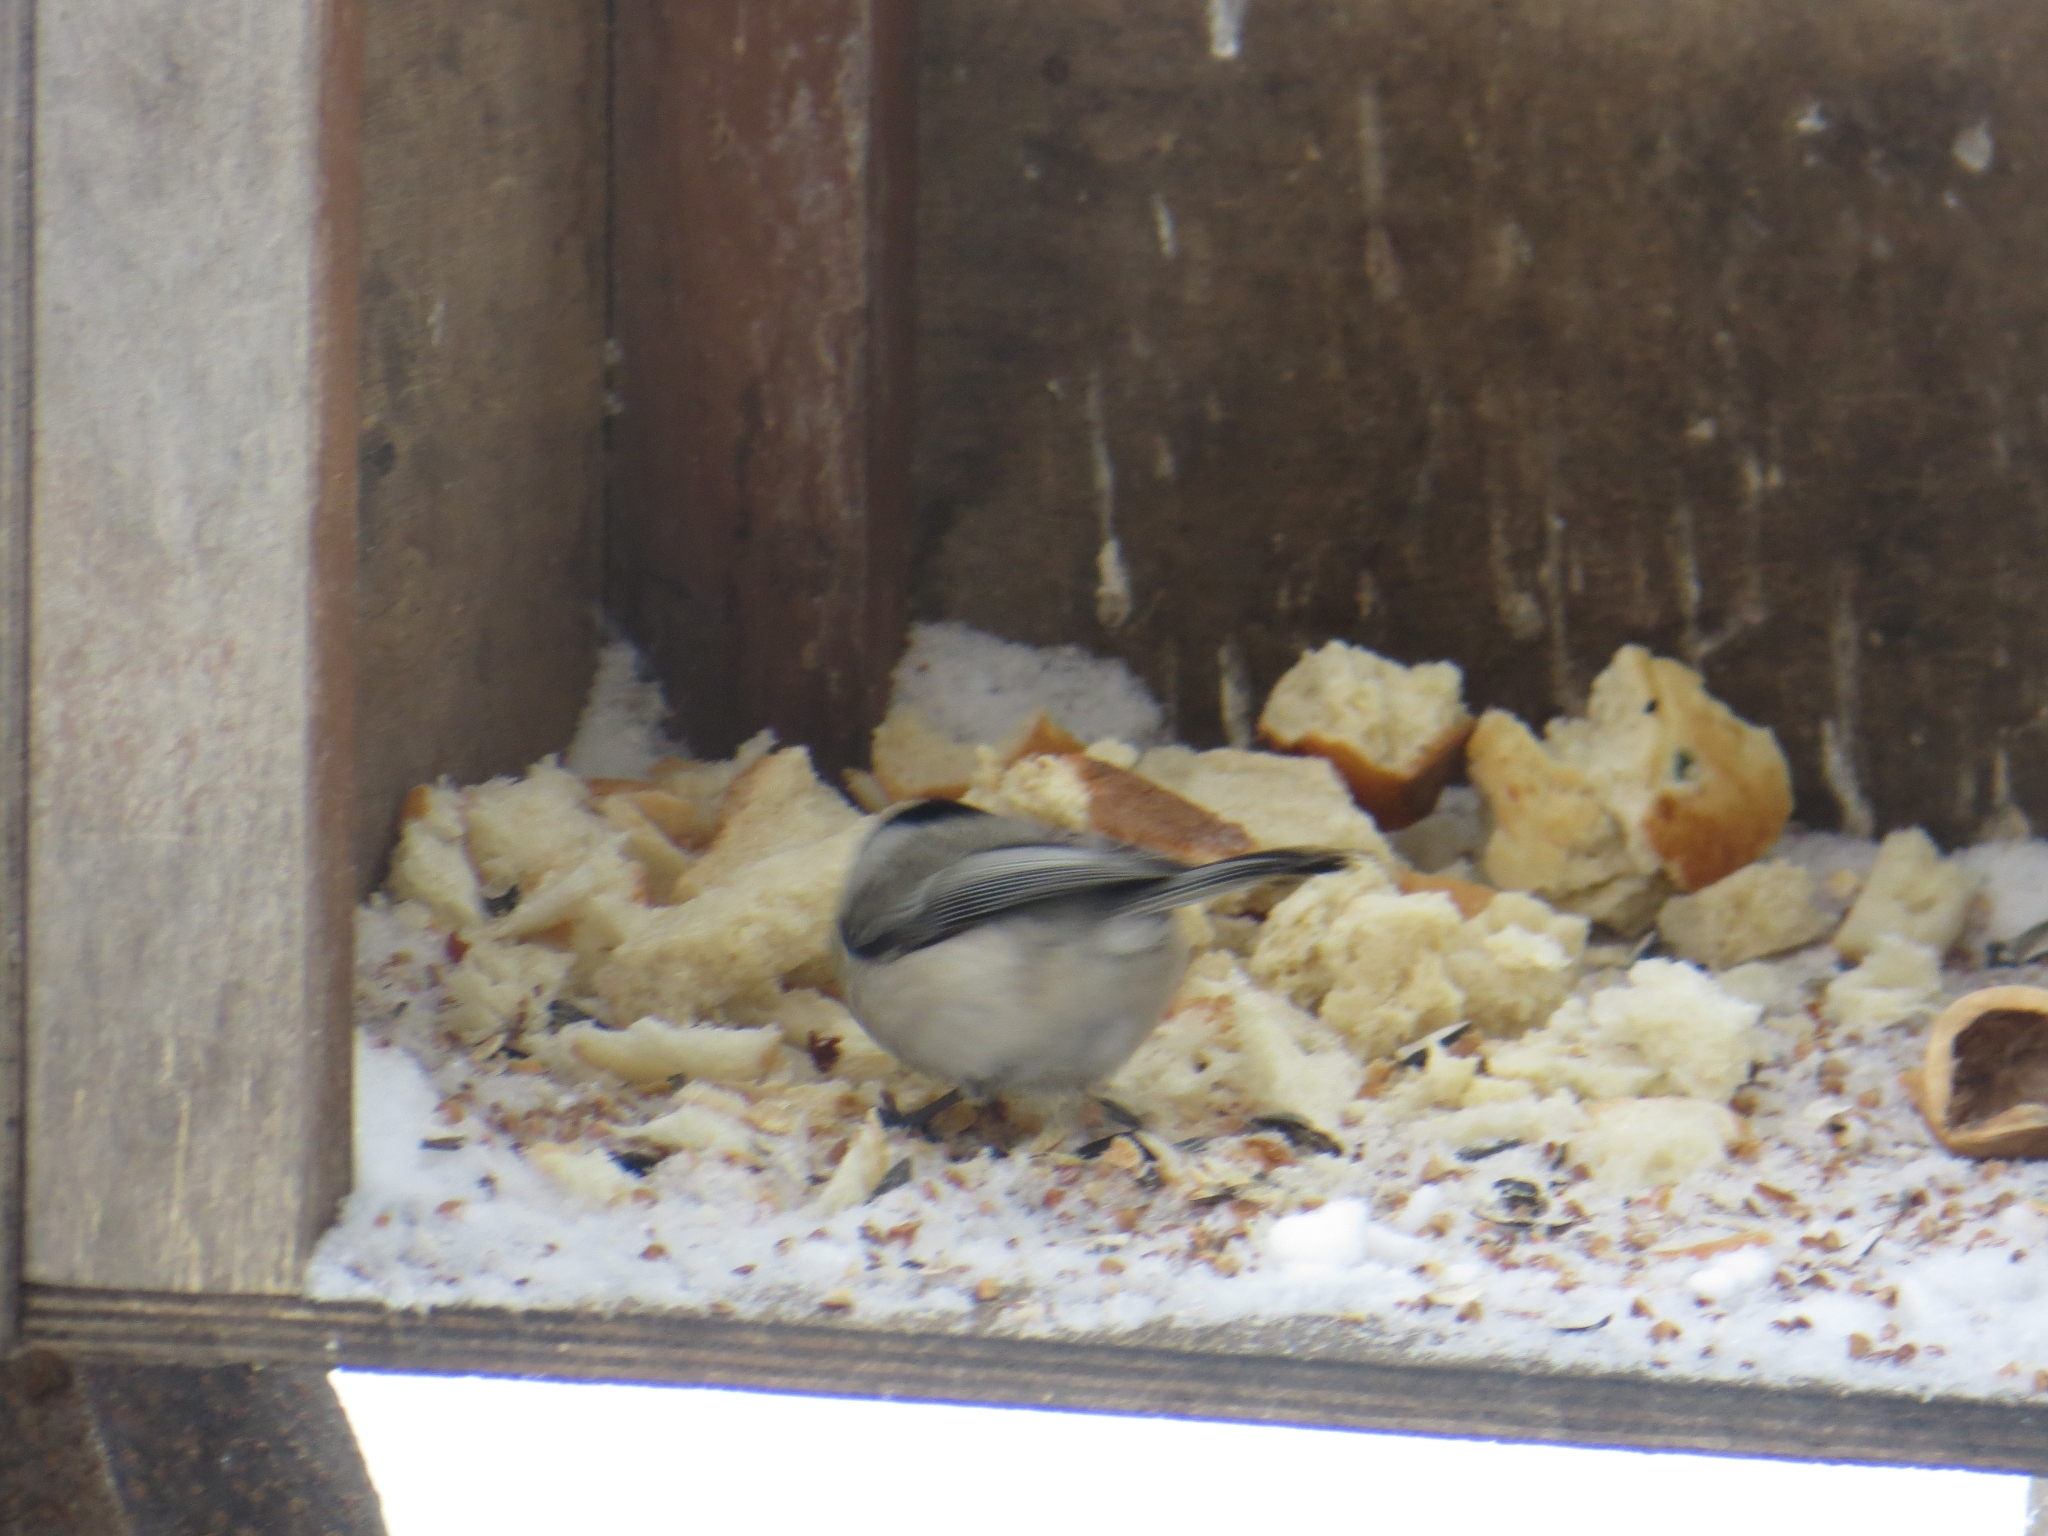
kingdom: Animalia
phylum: Chordata
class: Aves
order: Passeriformes
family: Paridae
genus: Poecile
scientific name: Poecile montanus
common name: Willow tit
